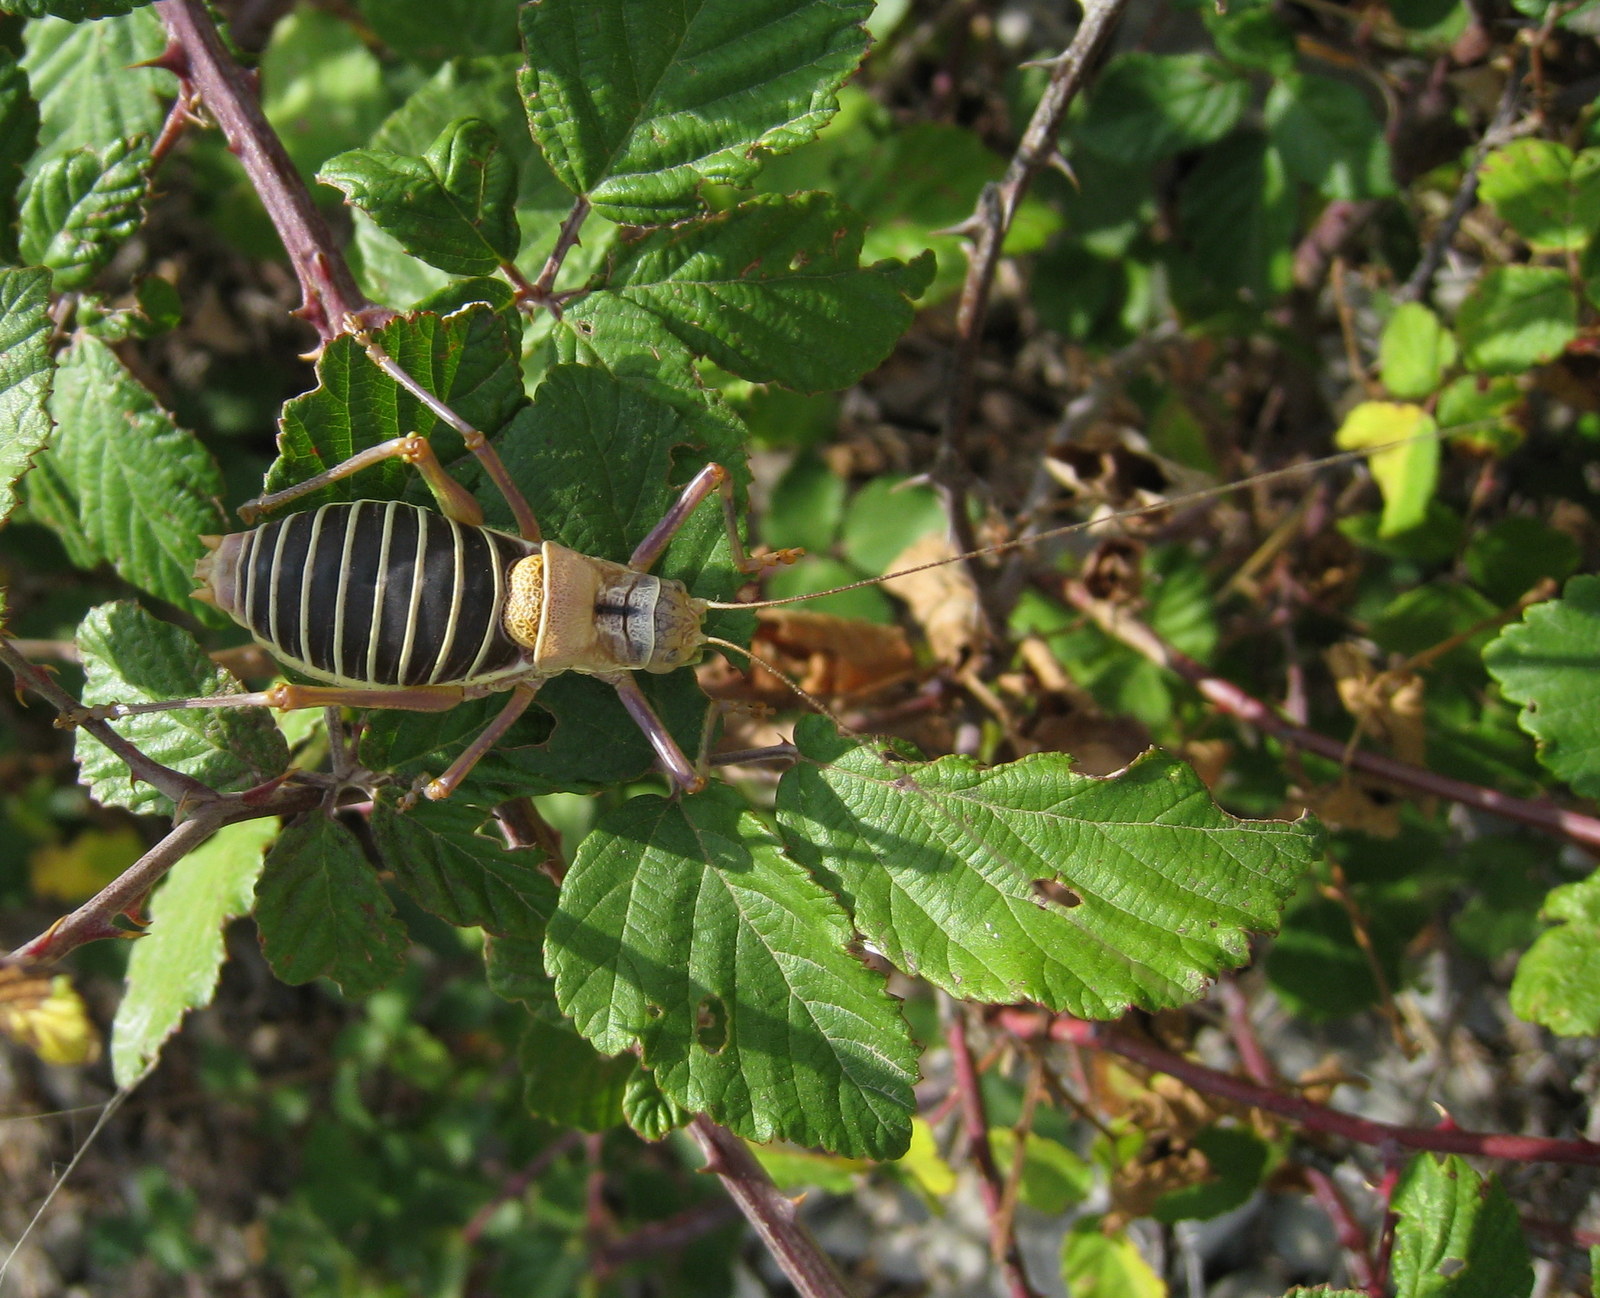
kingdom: Animalia
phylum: Arthropoda
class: Insecta
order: Orthoptera
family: Tettigoniidae
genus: Ephippiger
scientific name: Ephippiger diurnus
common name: Western saddle bush-cricket
